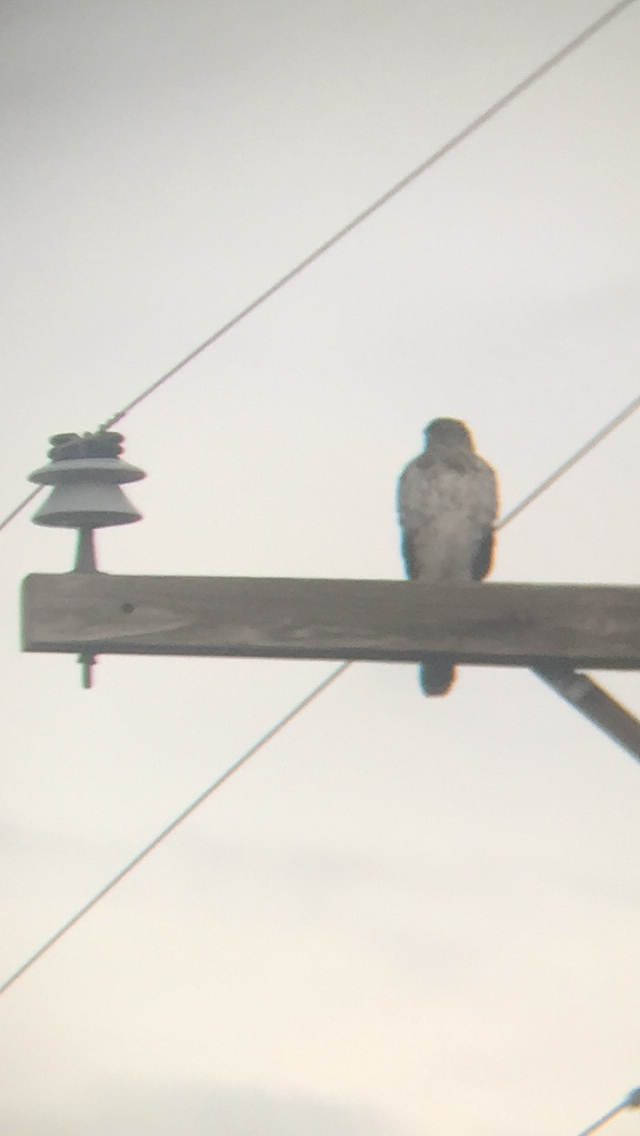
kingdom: Animalia
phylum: Chordata
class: Aves
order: Accipitriformes
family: Accipitridae
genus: Accipiter
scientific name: Accipiter cooperii
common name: Cooper's hawk
